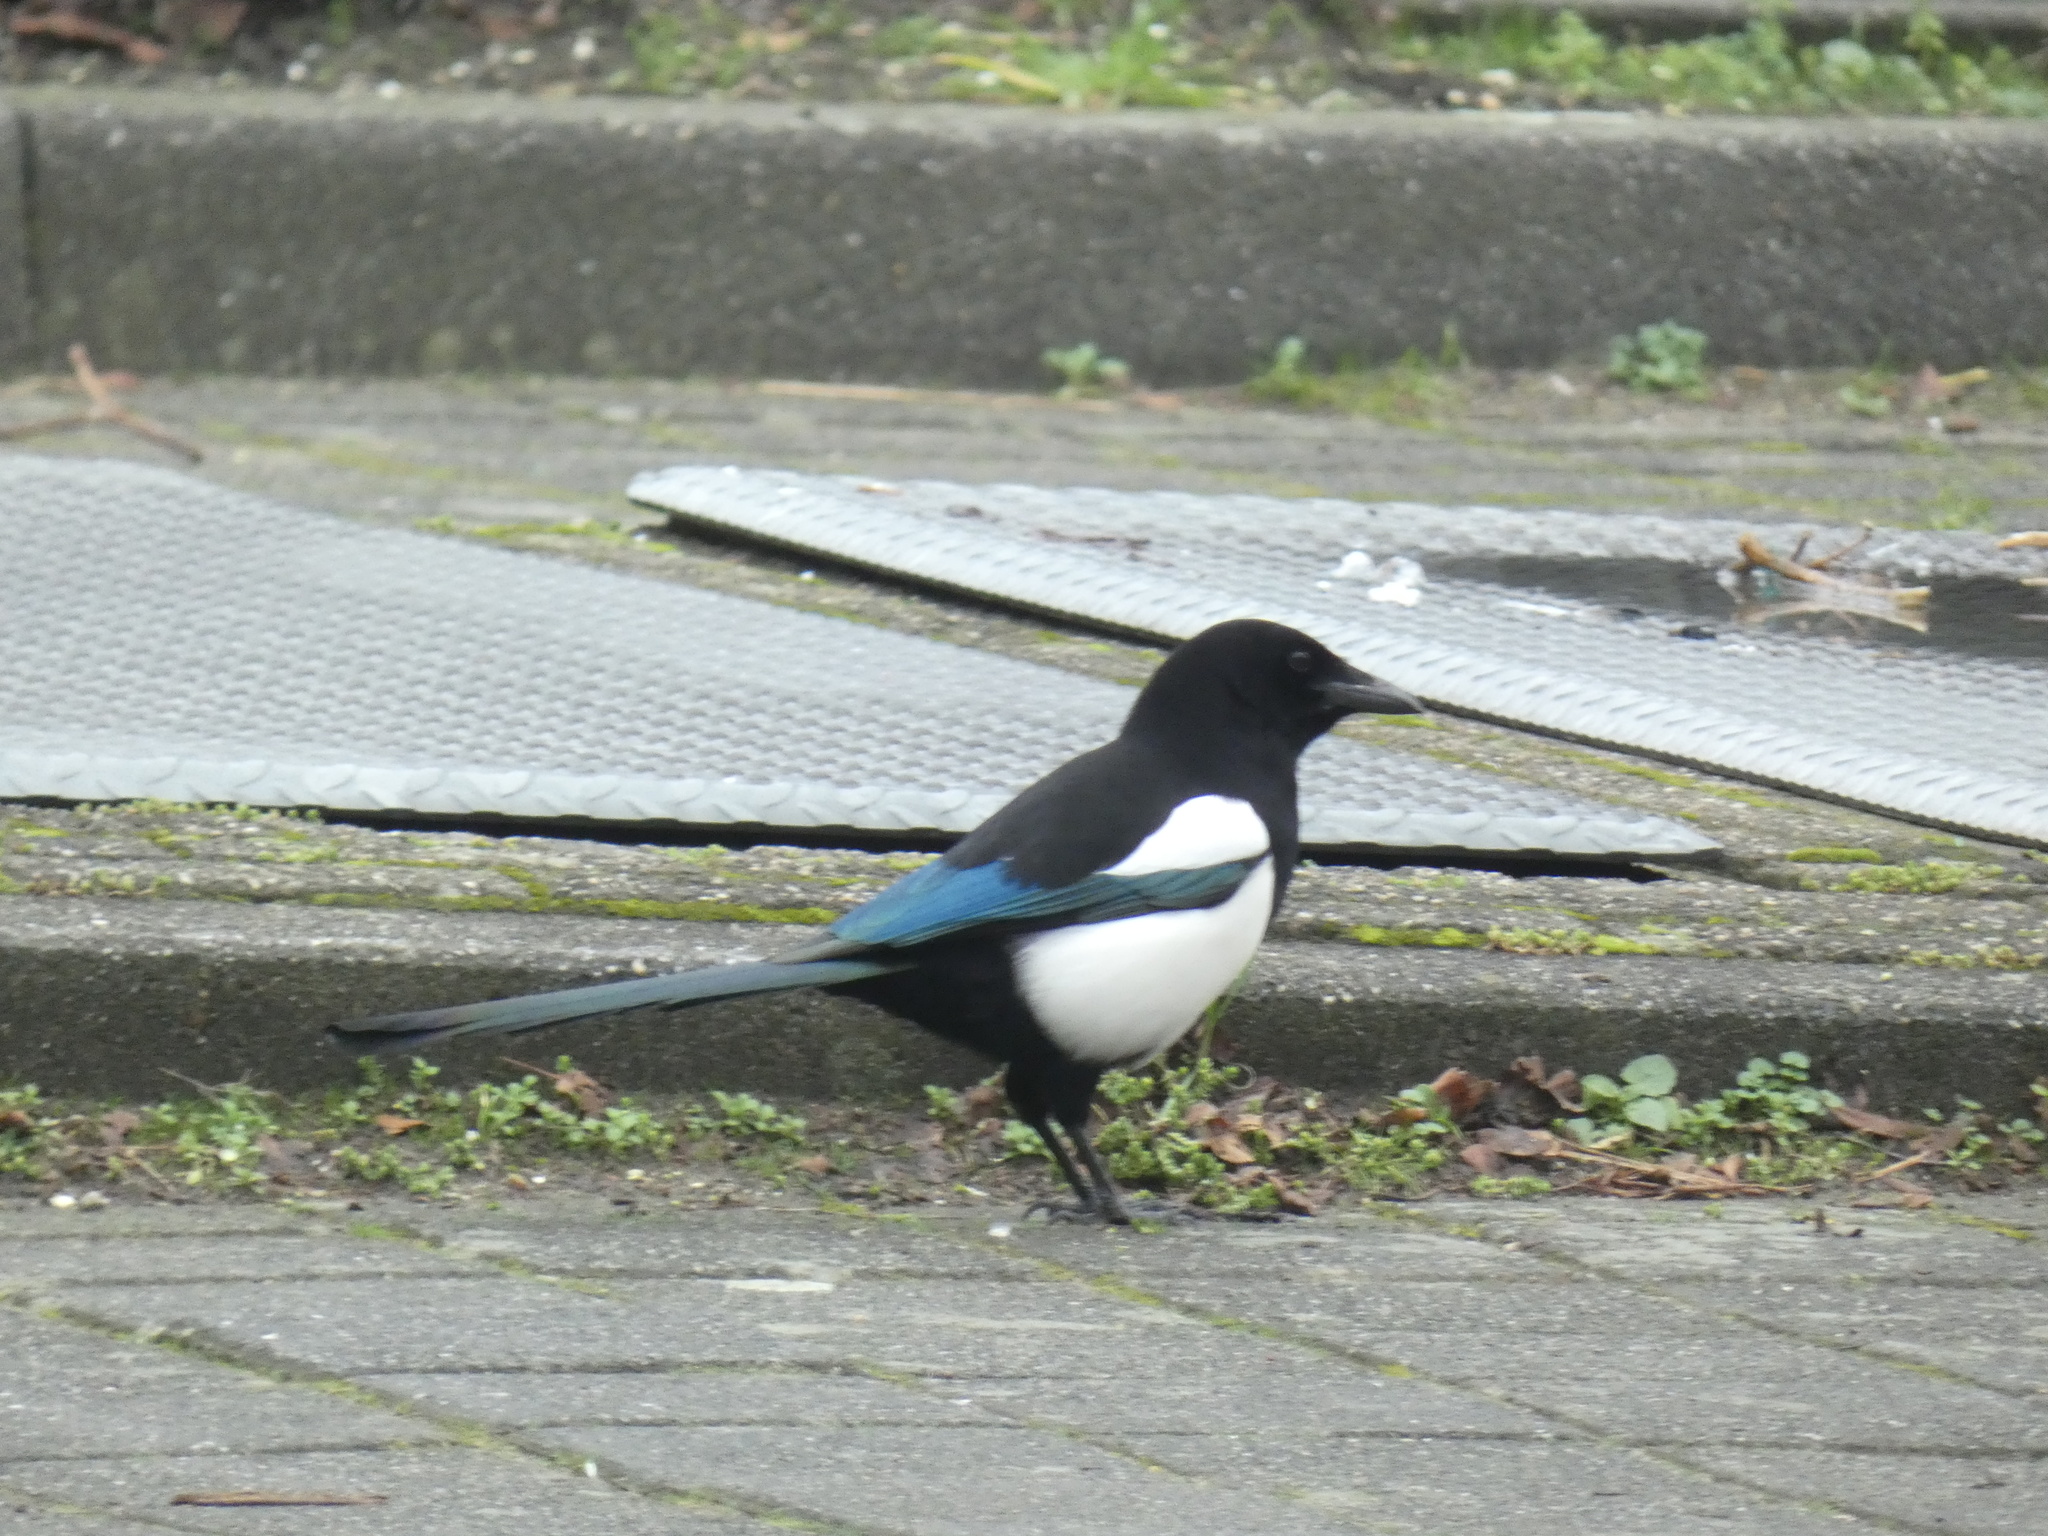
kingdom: Animalia
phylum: Chordata
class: Aves
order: Passeriformes
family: Corvidae
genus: Pica
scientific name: Pica pica
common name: Eurasian magpie
